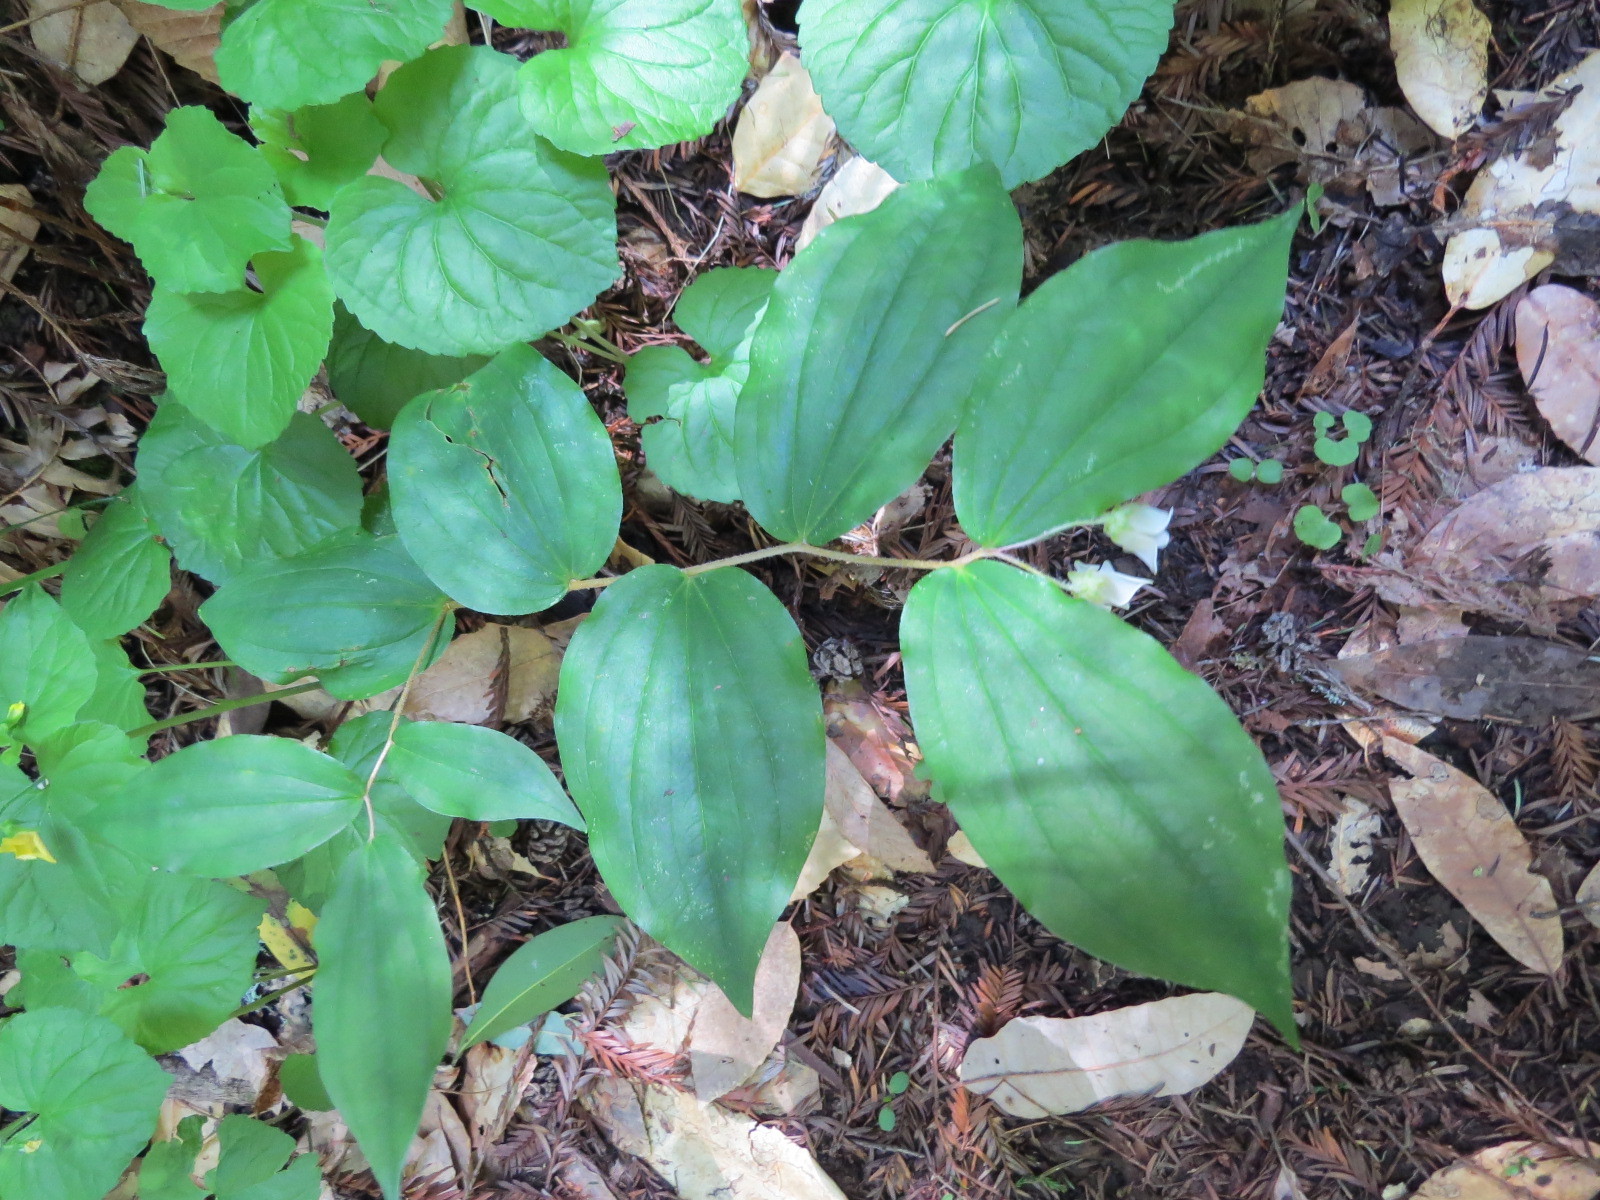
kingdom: Plantae
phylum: Tracheophyta
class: Liliopsida
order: Liliales
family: Liliaceae
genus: Prosartes
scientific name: Prosartes smithii
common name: Fairy-lantern
